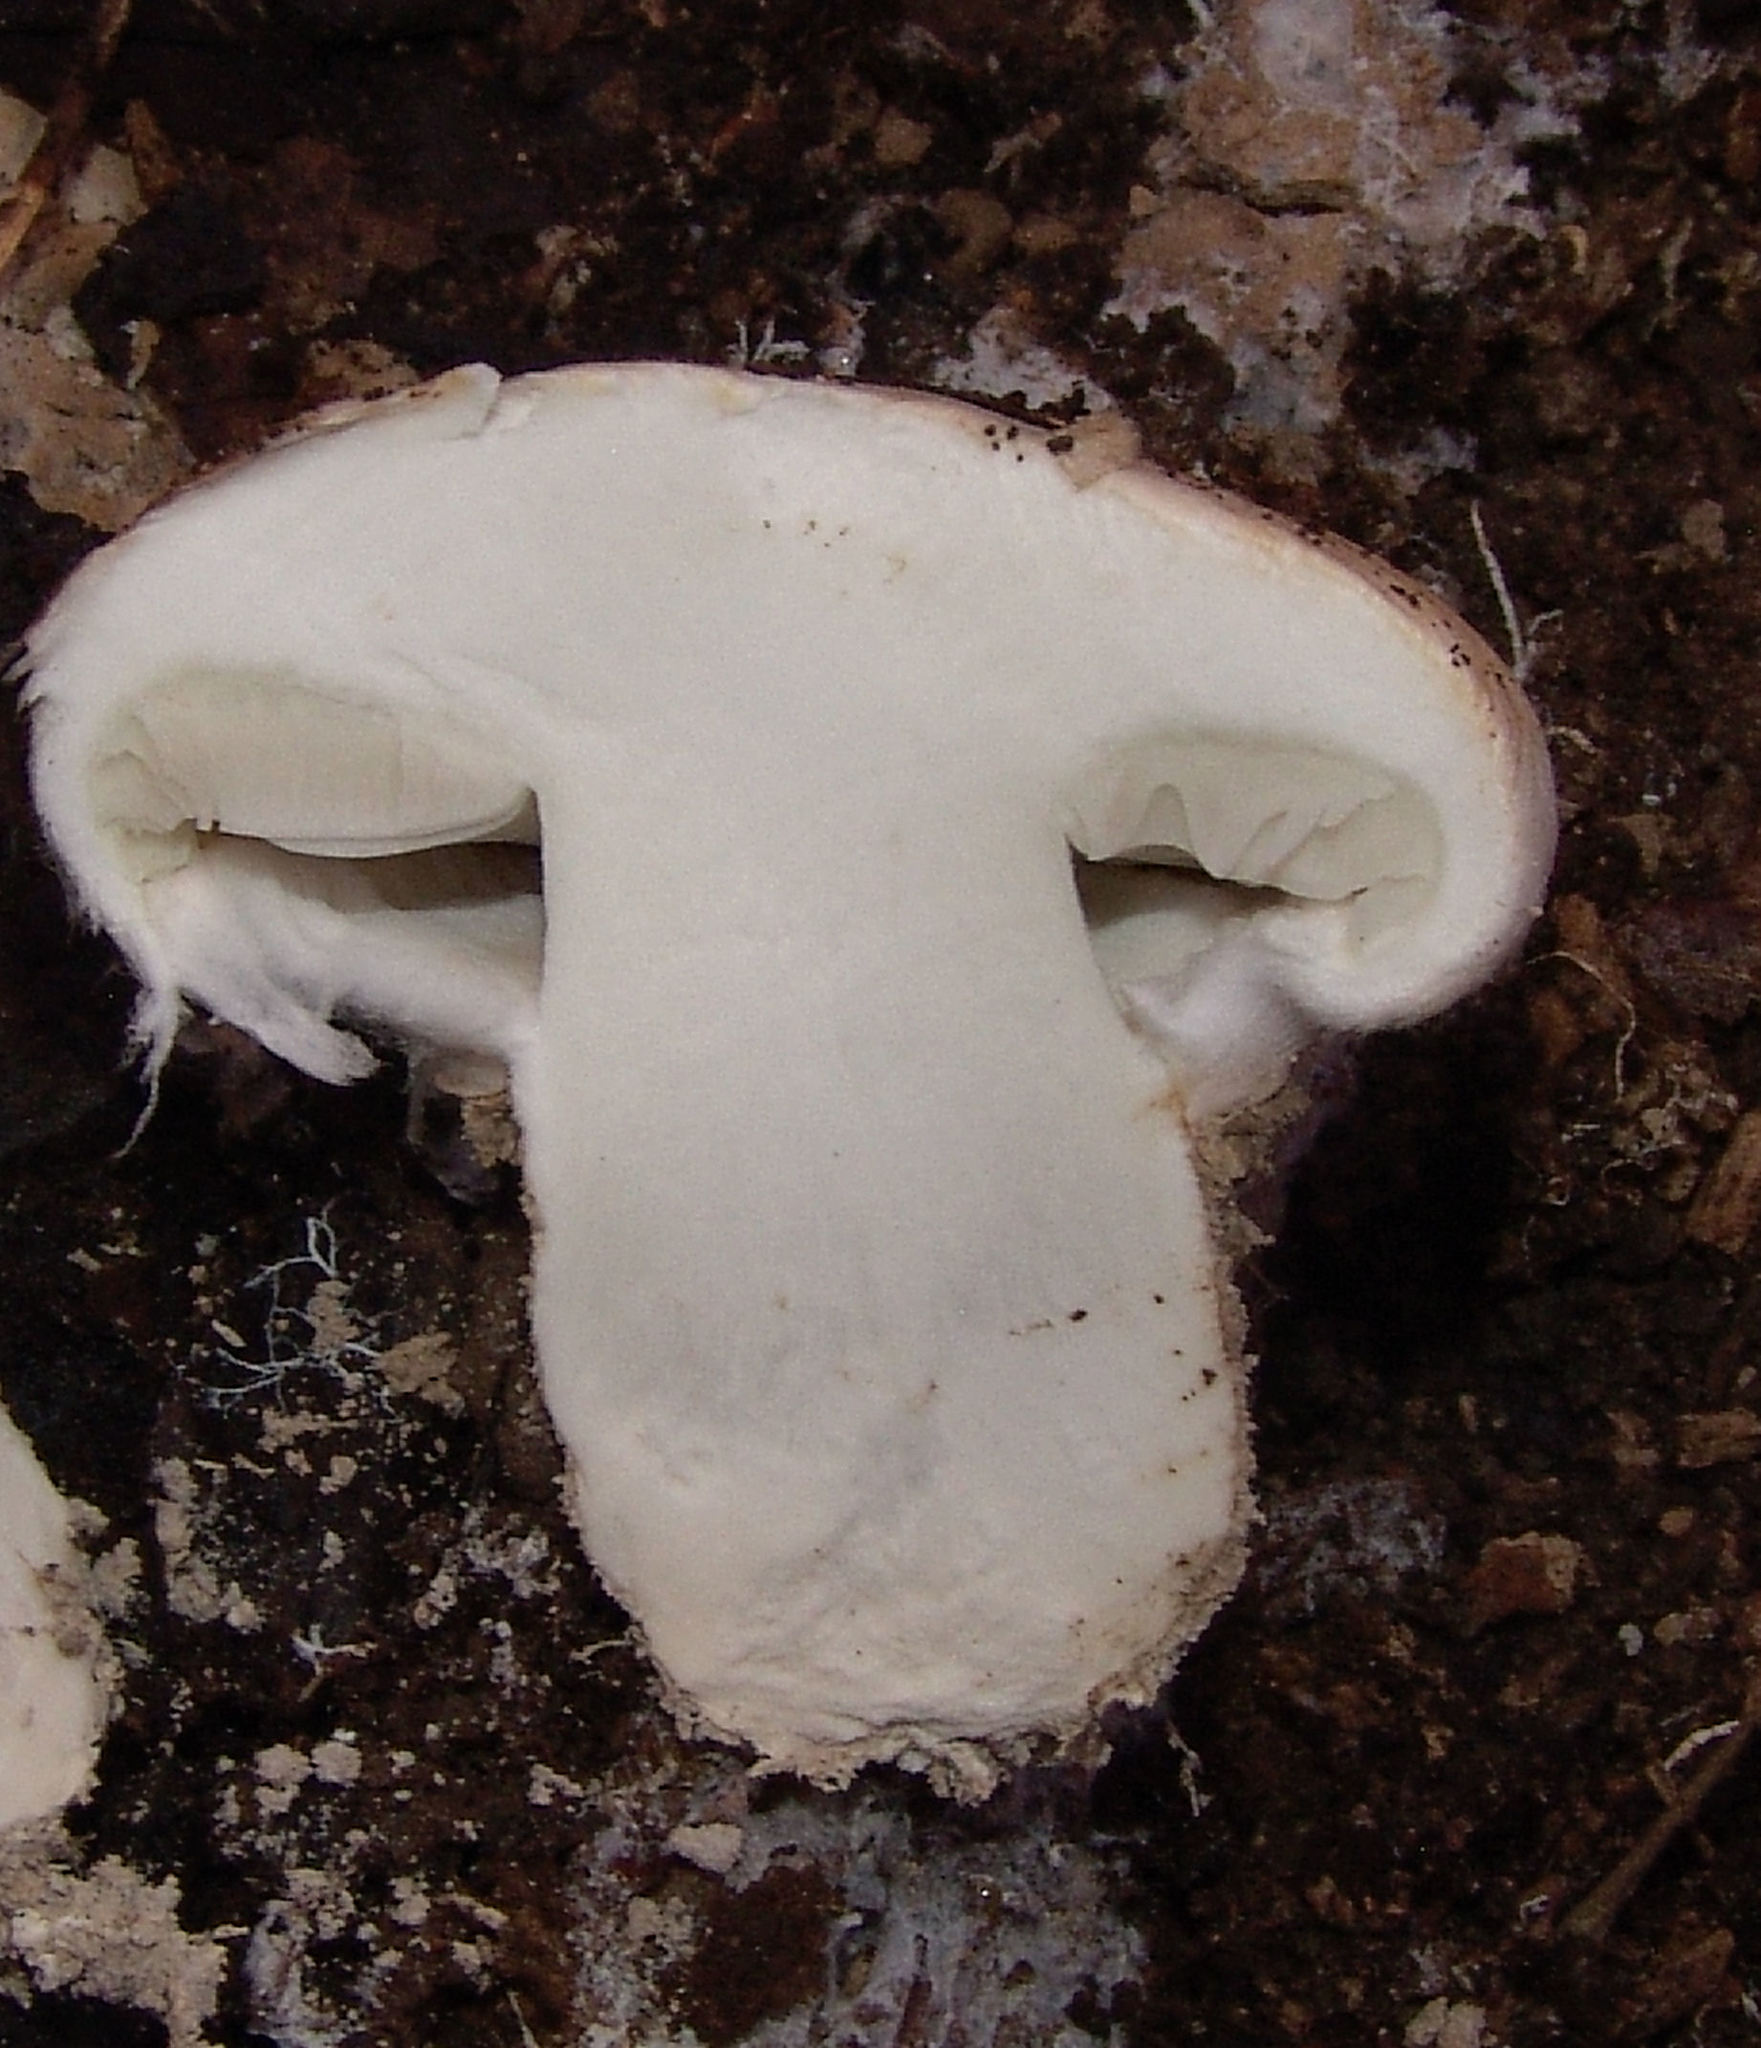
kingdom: Fungi
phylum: Basidiomycota
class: Agaricomycetes
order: Agaricales
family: Tricholomataceae
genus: Tricholoma
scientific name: Tricholoma caligatum
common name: True booted knight
